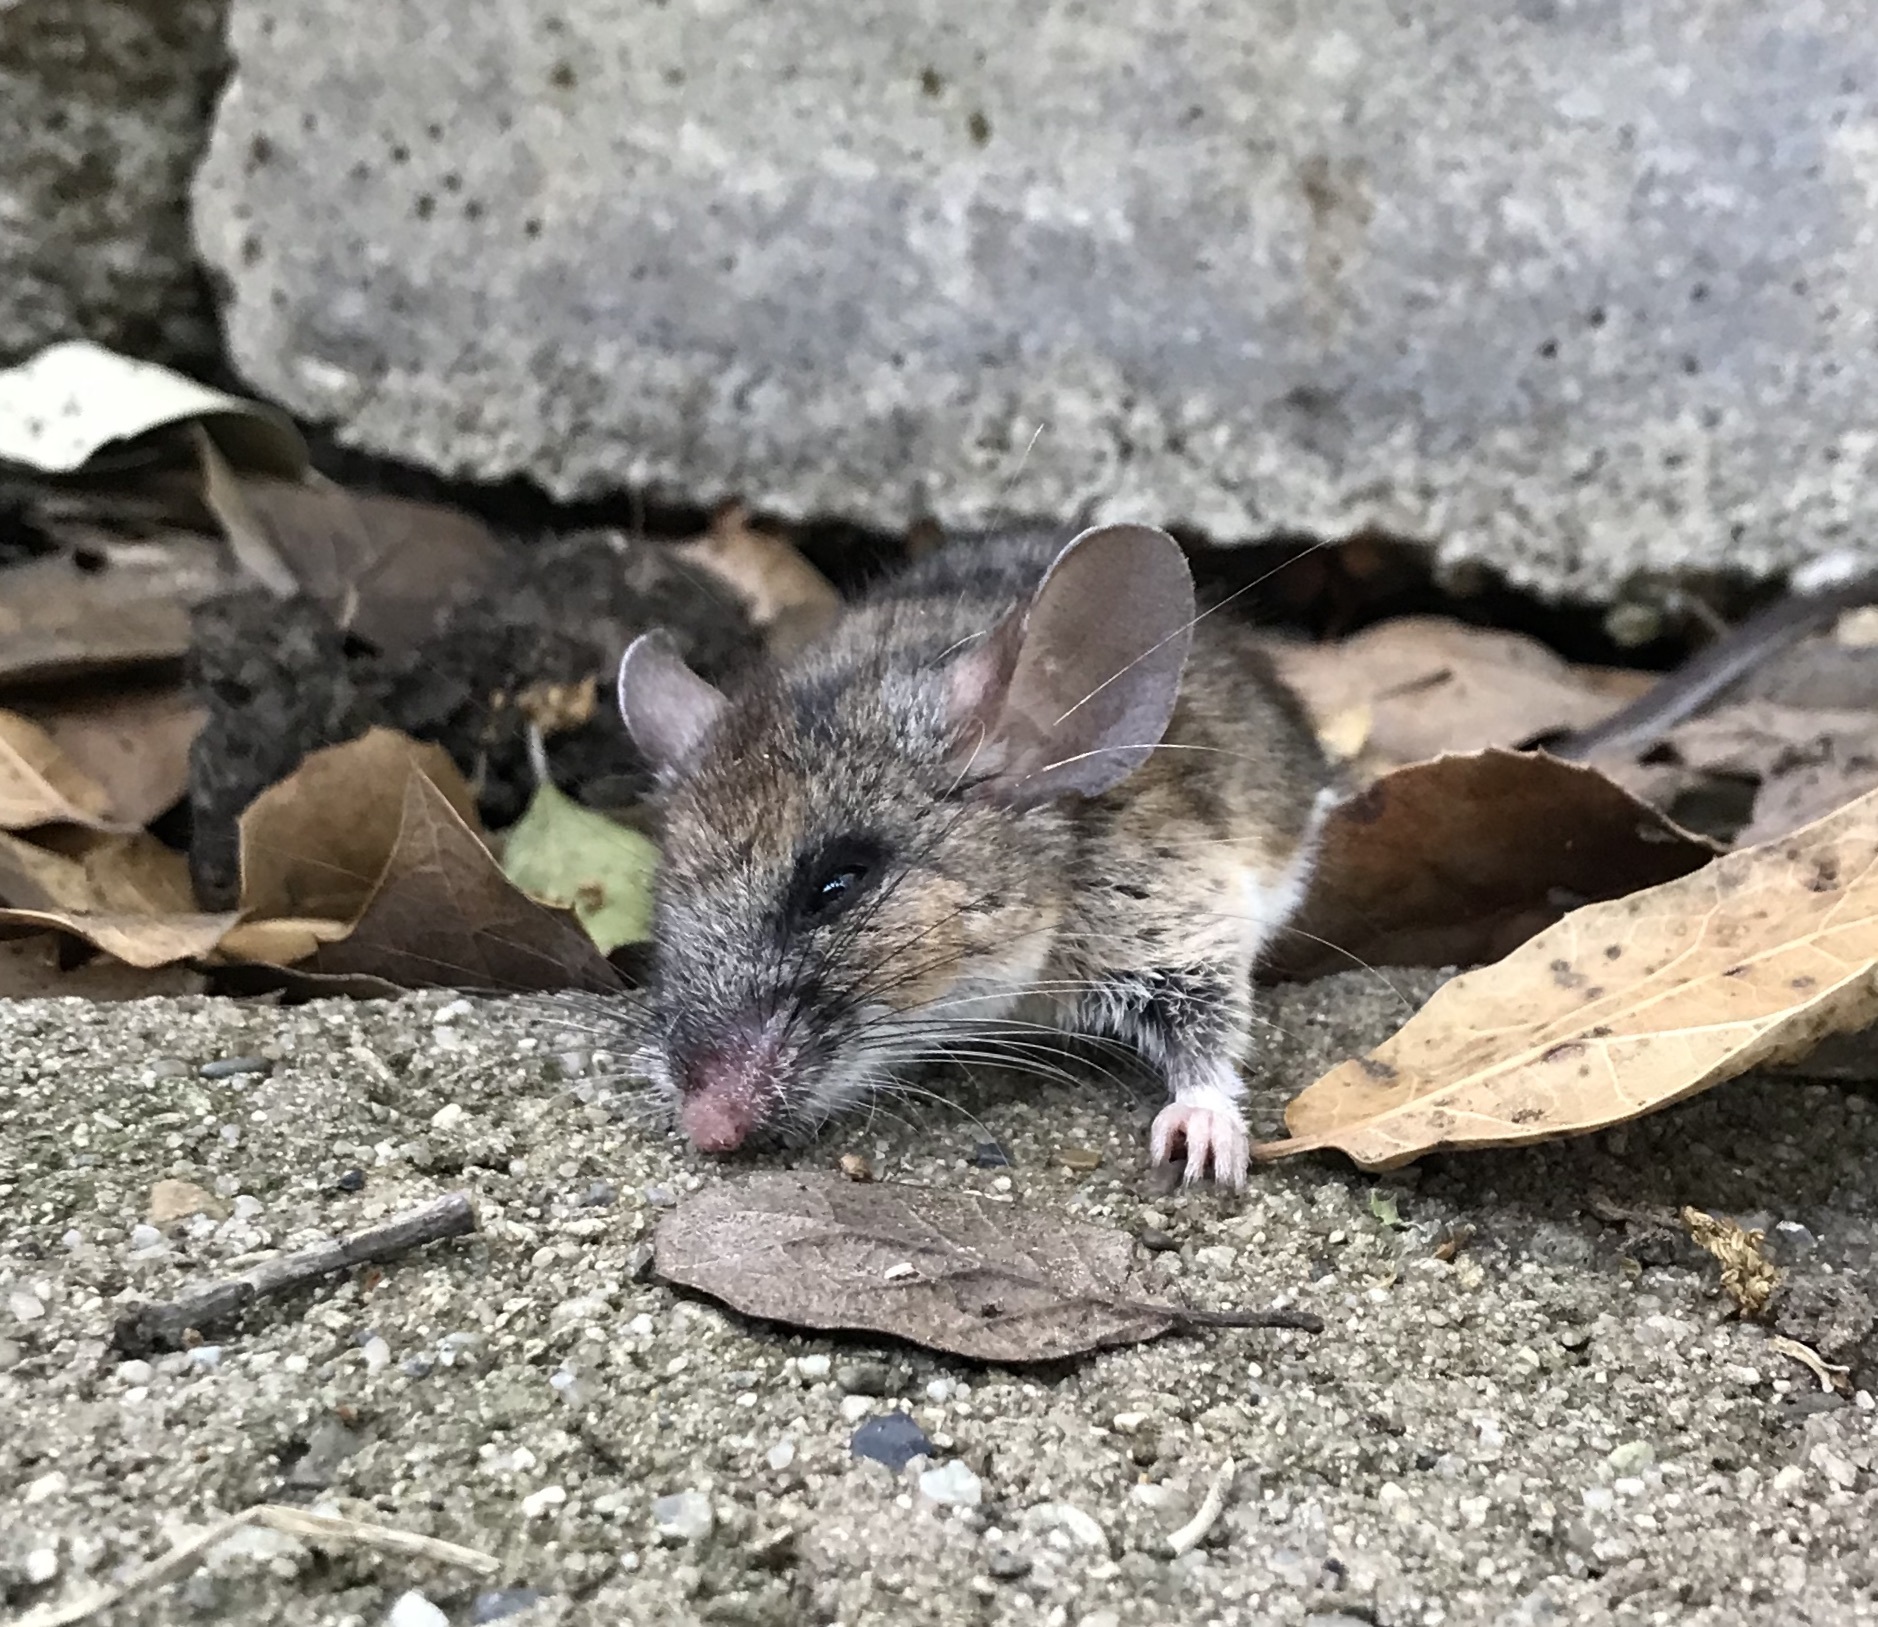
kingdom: Animalia
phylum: Chordata
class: Mammalia
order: Rodentia
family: Cricetidae
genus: Peromyscus
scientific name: Peromyscus californicus
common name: California deermouse
